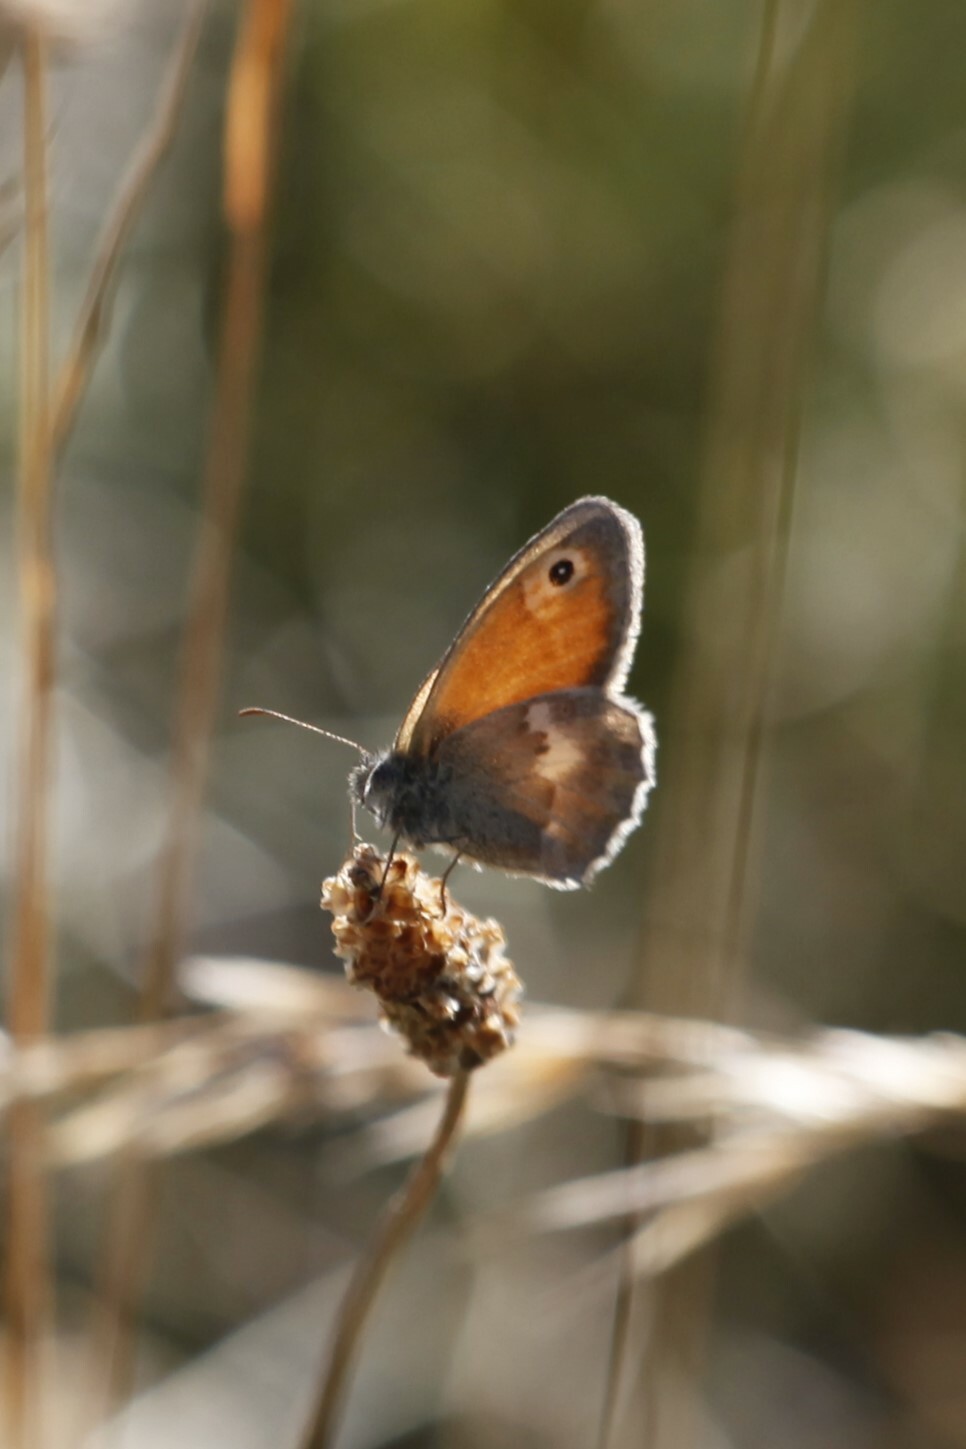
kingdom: Animalia
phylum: Arthropoda
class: Insecta
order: Lepidoptera
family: Nymphalidae
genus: Coenonympha
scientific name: Coenonympha pamphilus
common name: Small heath
